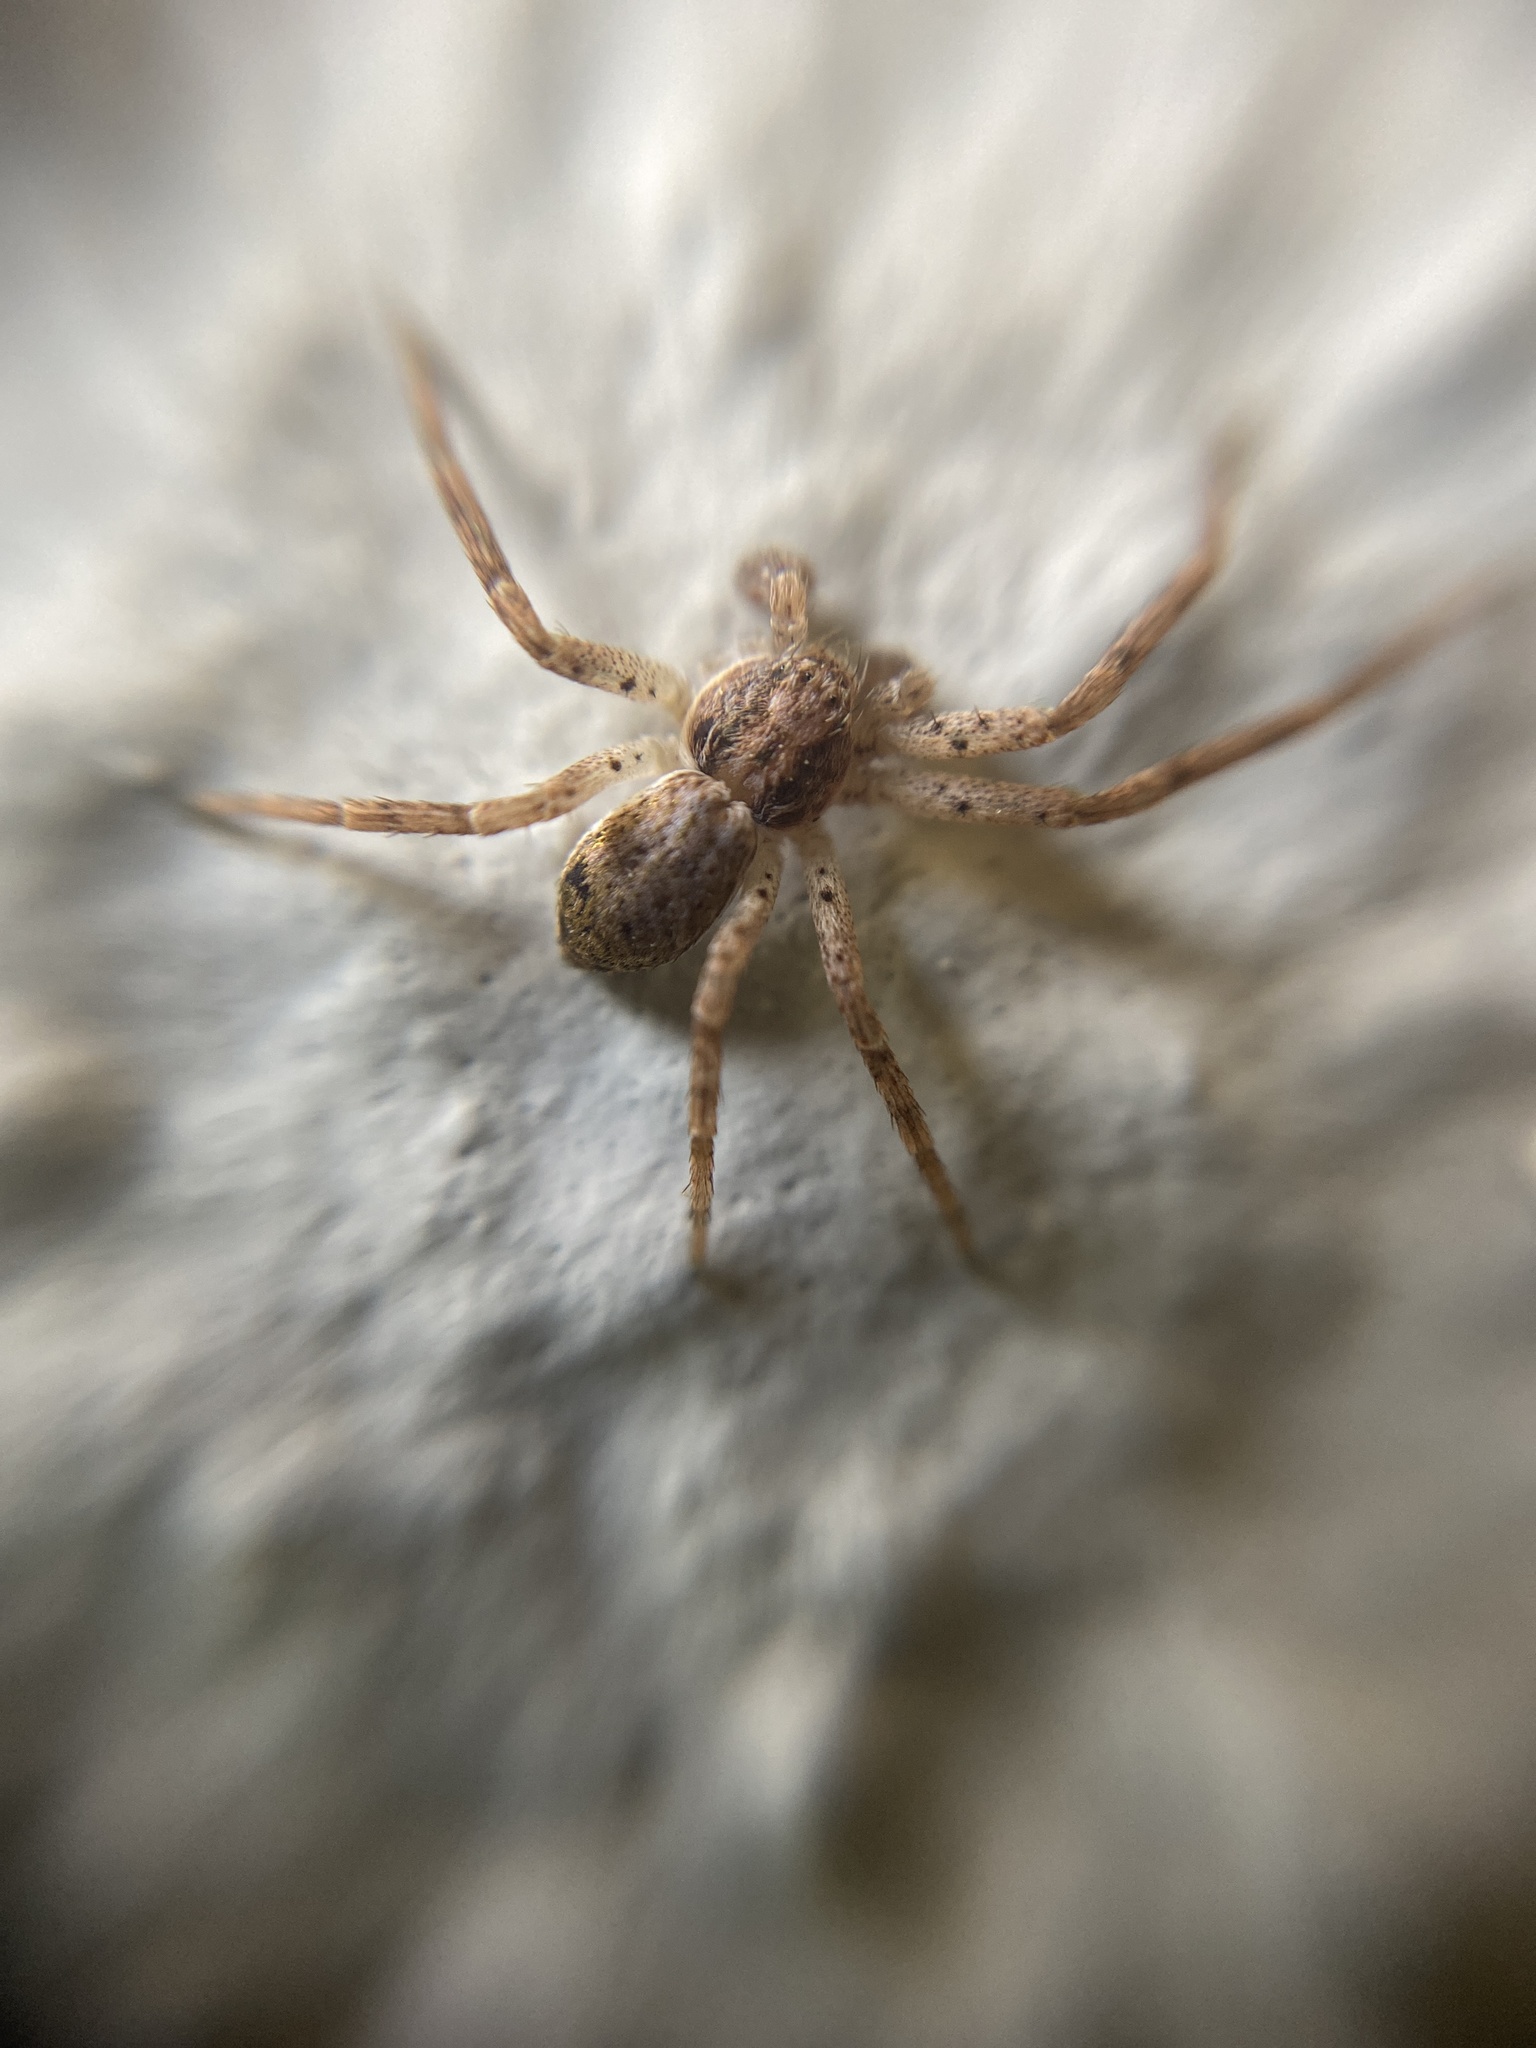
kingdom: Animalia
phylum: Arthropoda
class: Arachnida
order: Araneae
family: Philodromidae
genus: Philodromus
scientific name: Philodromus dispar
